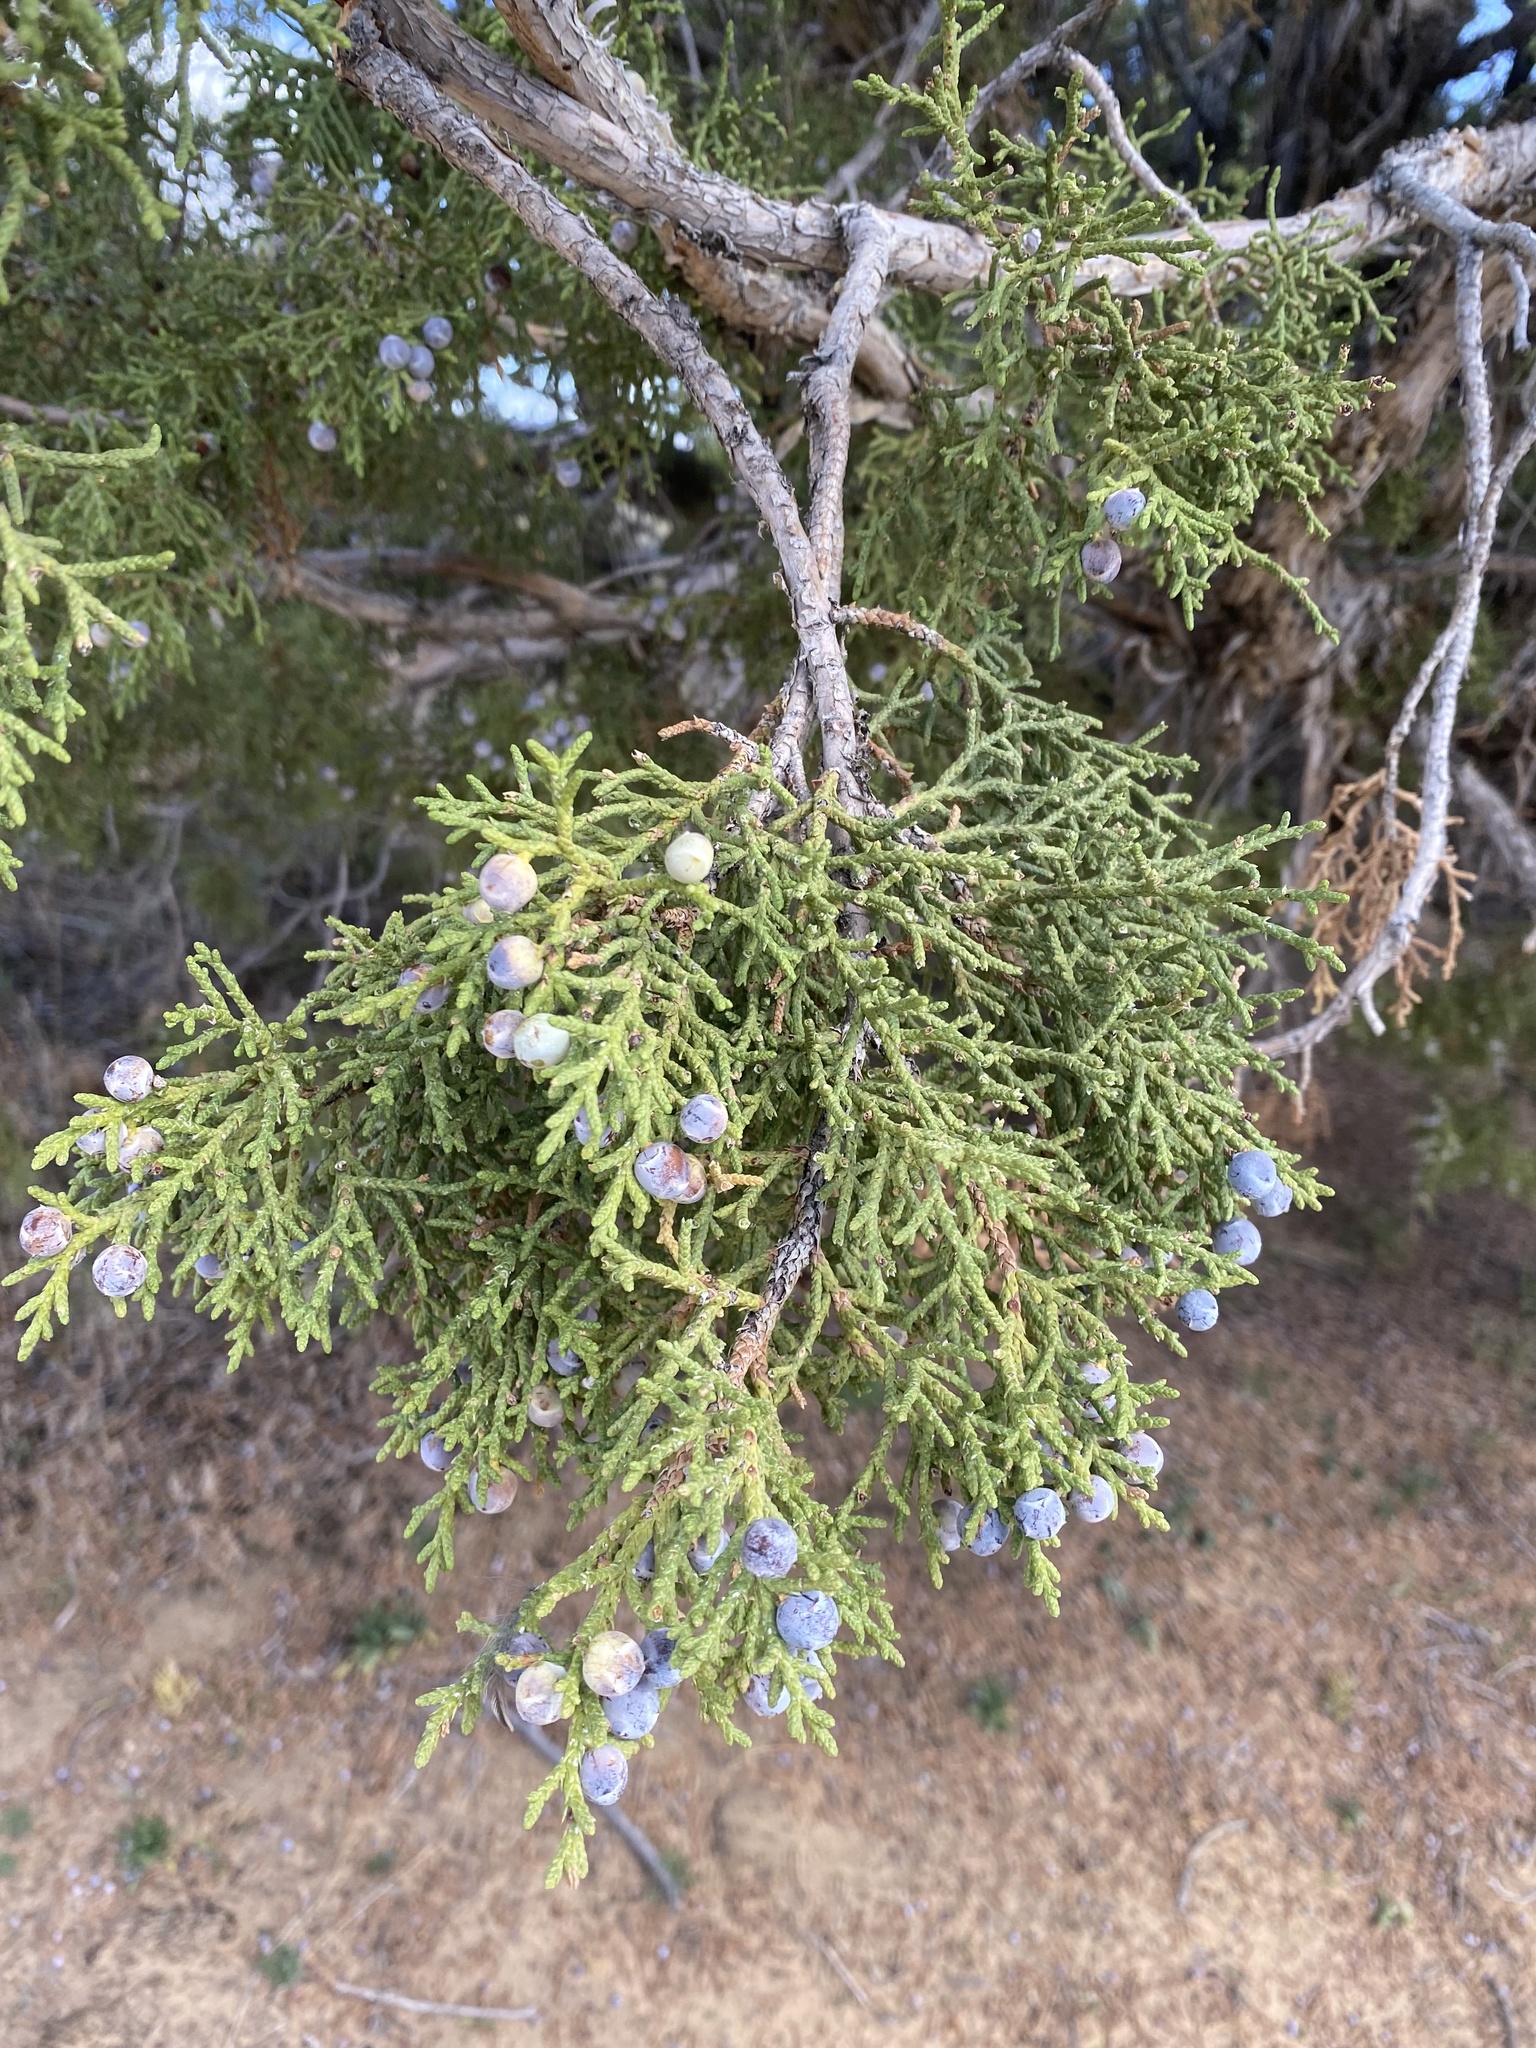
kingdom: Plantae
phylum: Tracheophyta
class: Pinopsida
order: Pinales
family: Cupressaceae
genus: Juniperus
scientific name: Juniperus osteosperma
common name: Utah juniper
